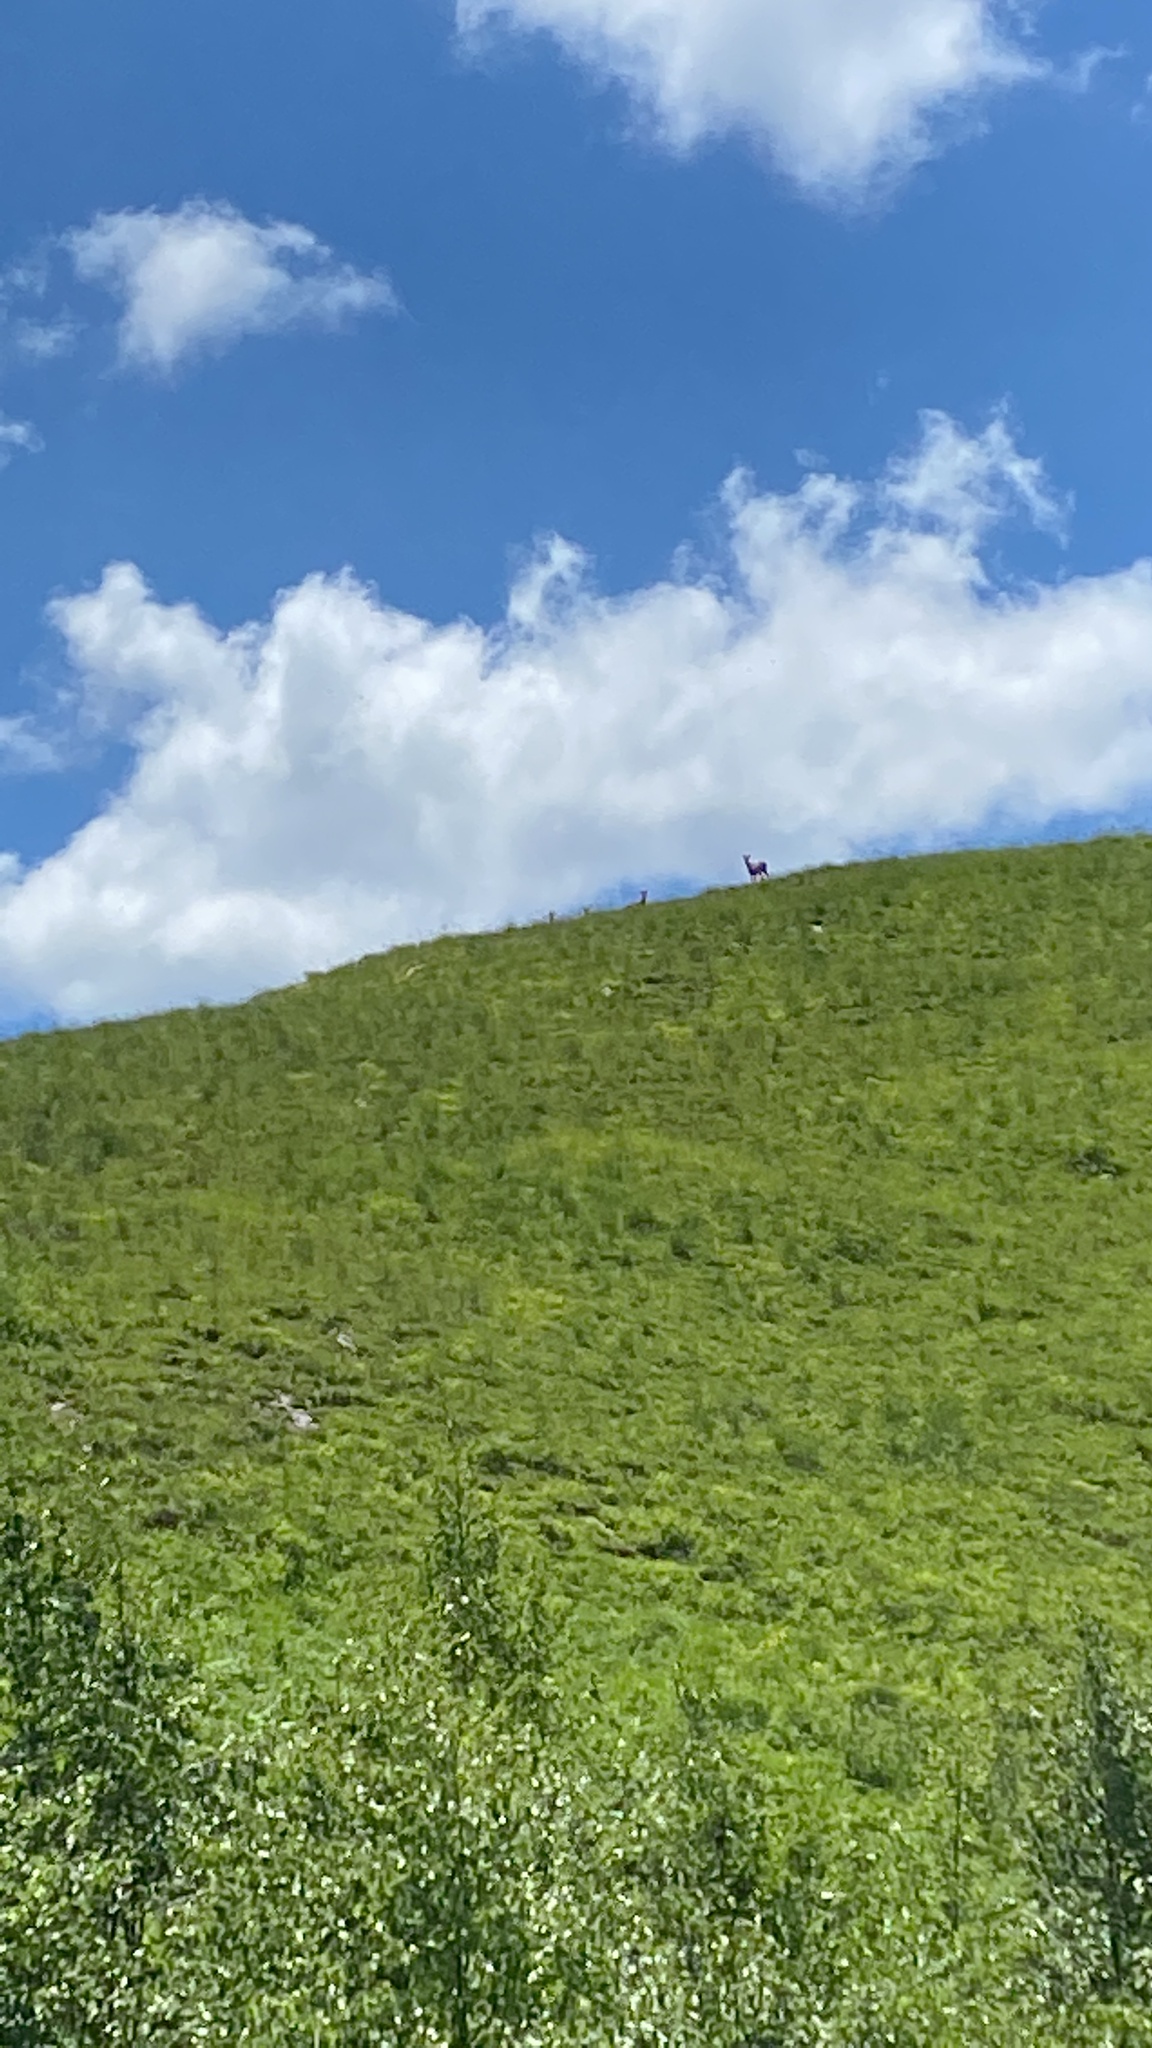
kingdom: Animalia
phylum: Chordata
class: Mammalia
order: Artiodactyla
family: Bovidae
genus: Rupicapra
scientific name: Rupicapra rupicapra
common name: Chamois
